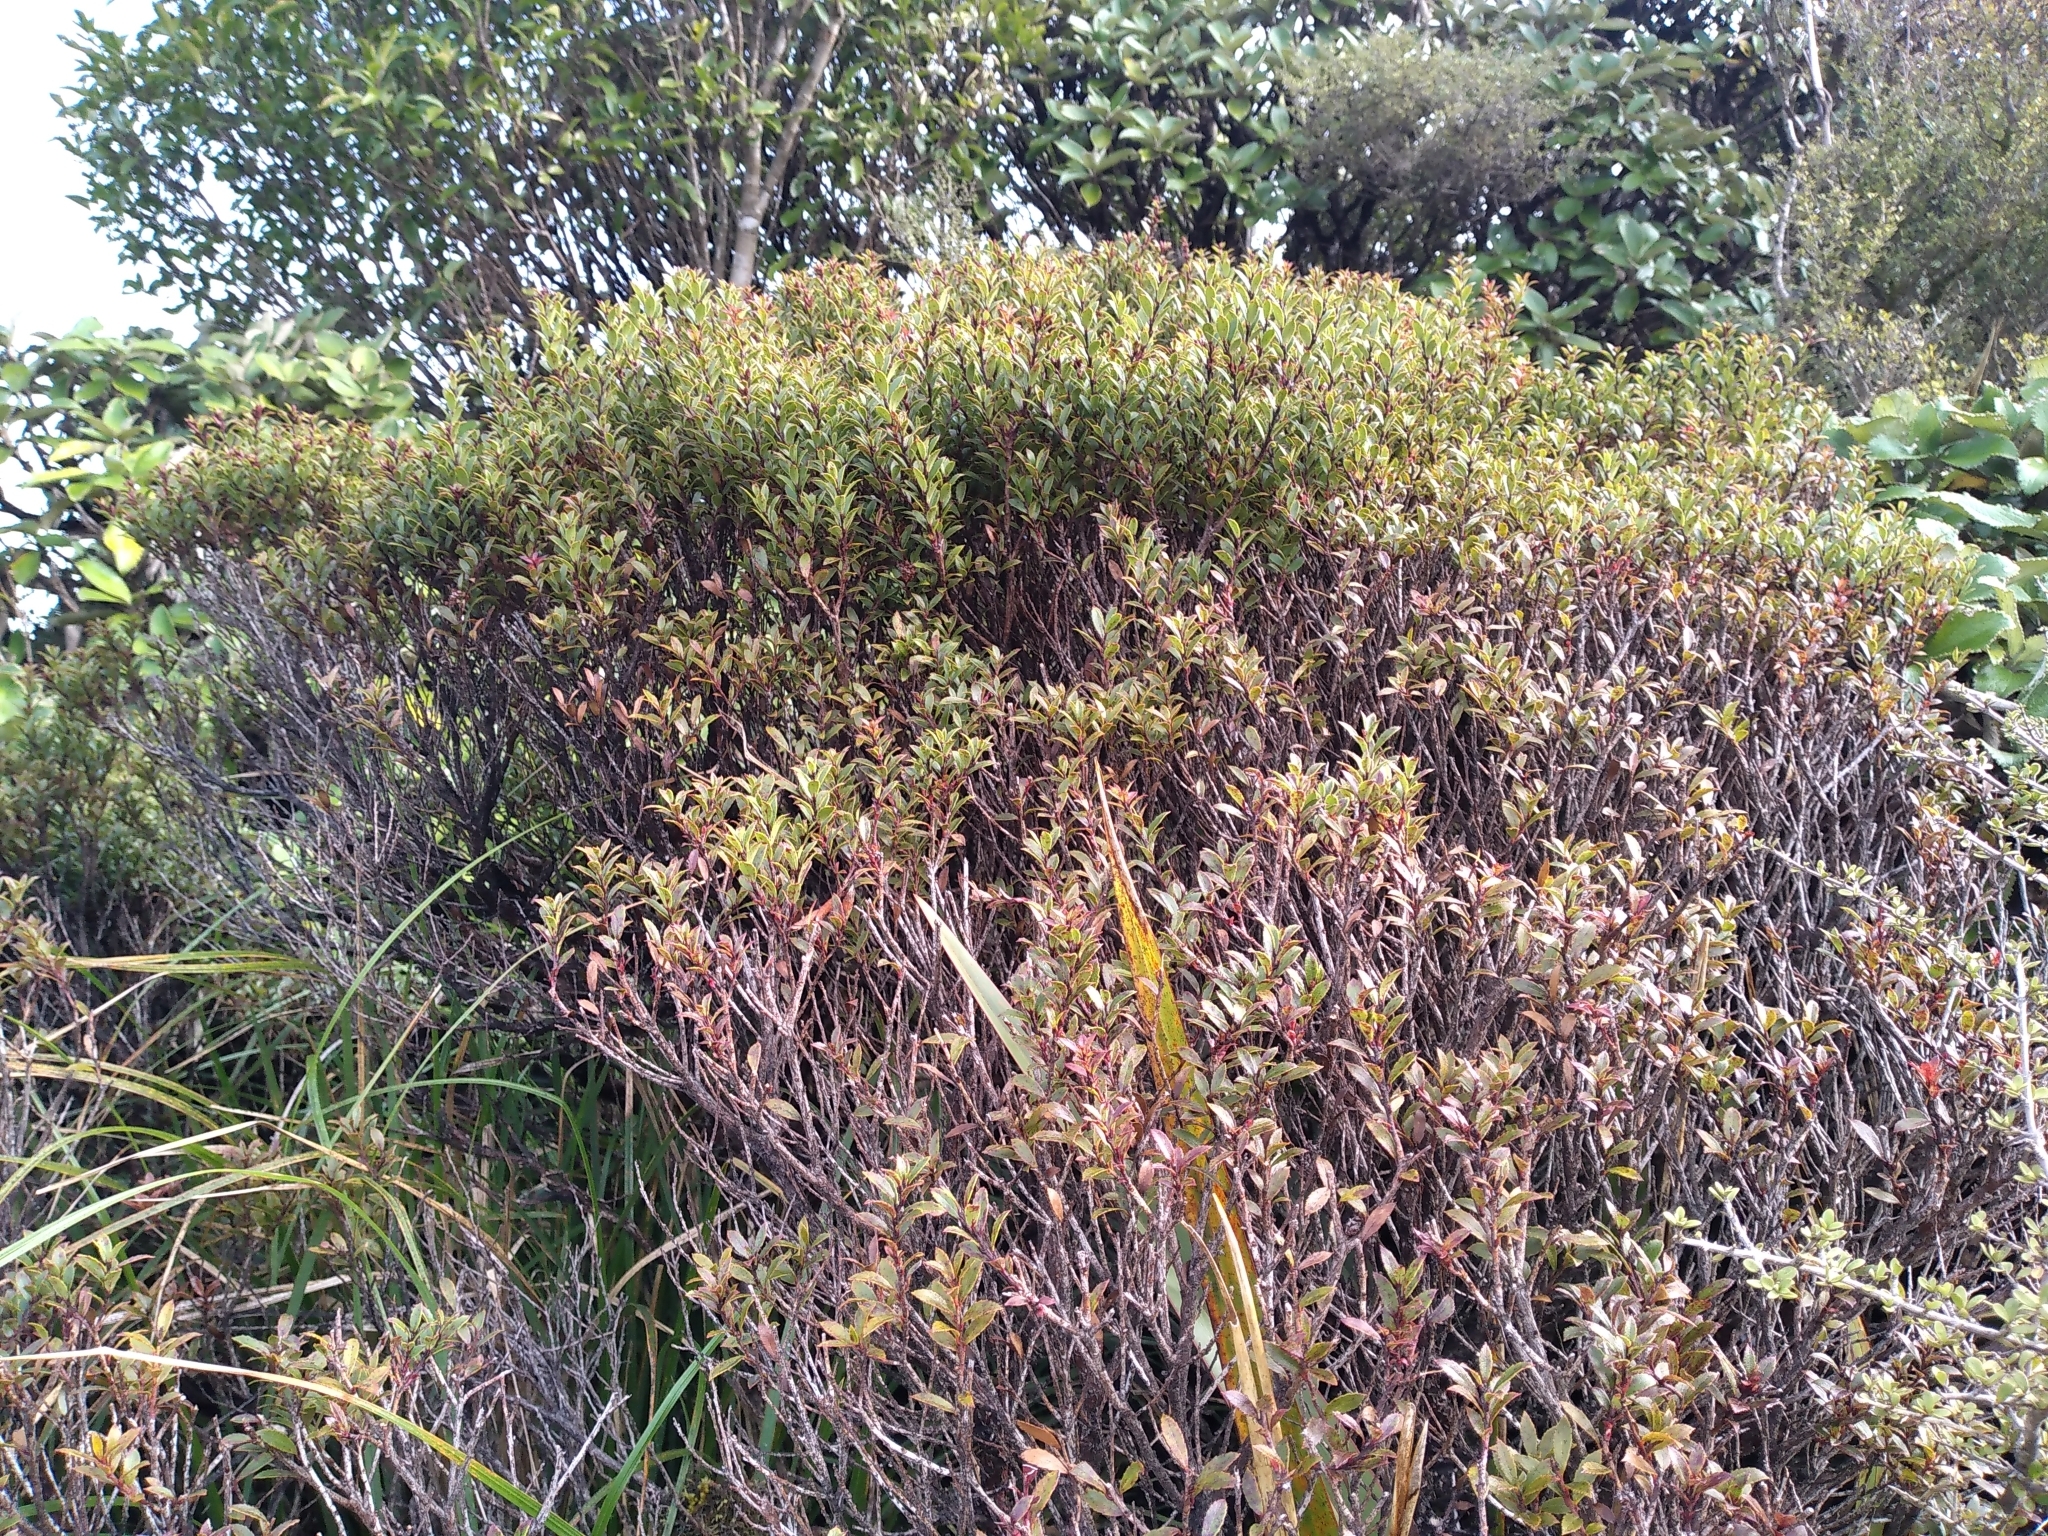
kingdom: Plantae
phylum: Tracheophyta
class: Magnoliopsida
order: Ericales
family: Ericaceae
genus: Gaultheria
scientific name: Gaultheria rupestris
